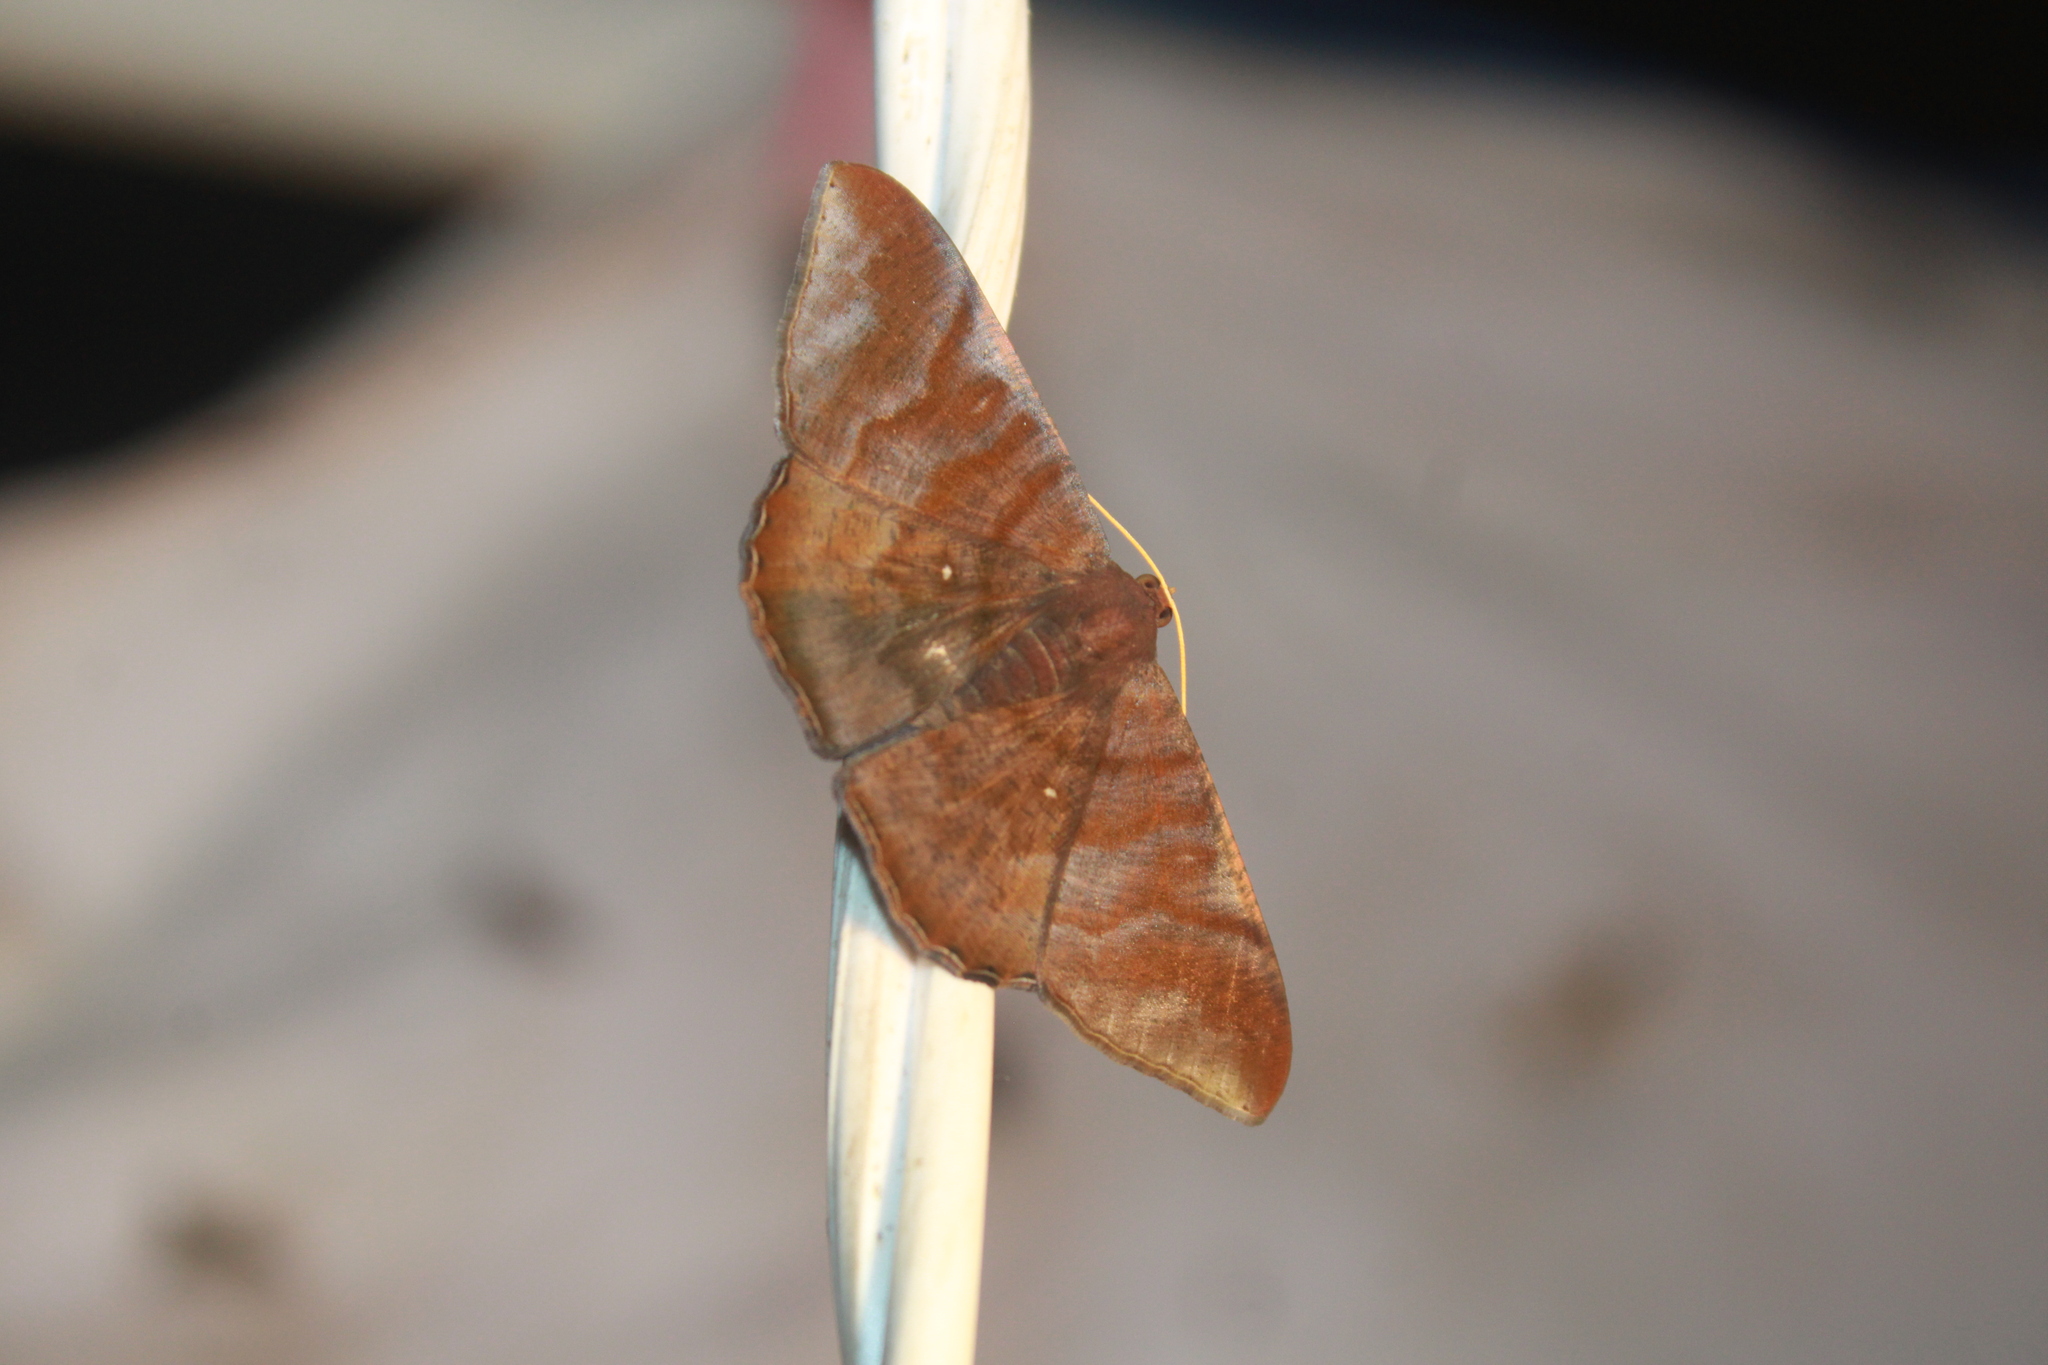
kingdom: Animalia
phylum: Arthropoda
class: Insecta
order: Lepidoptera
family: Geometridae
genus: Sphacelodes
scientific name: Sphacelodes vulneraria
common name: Looper moth
